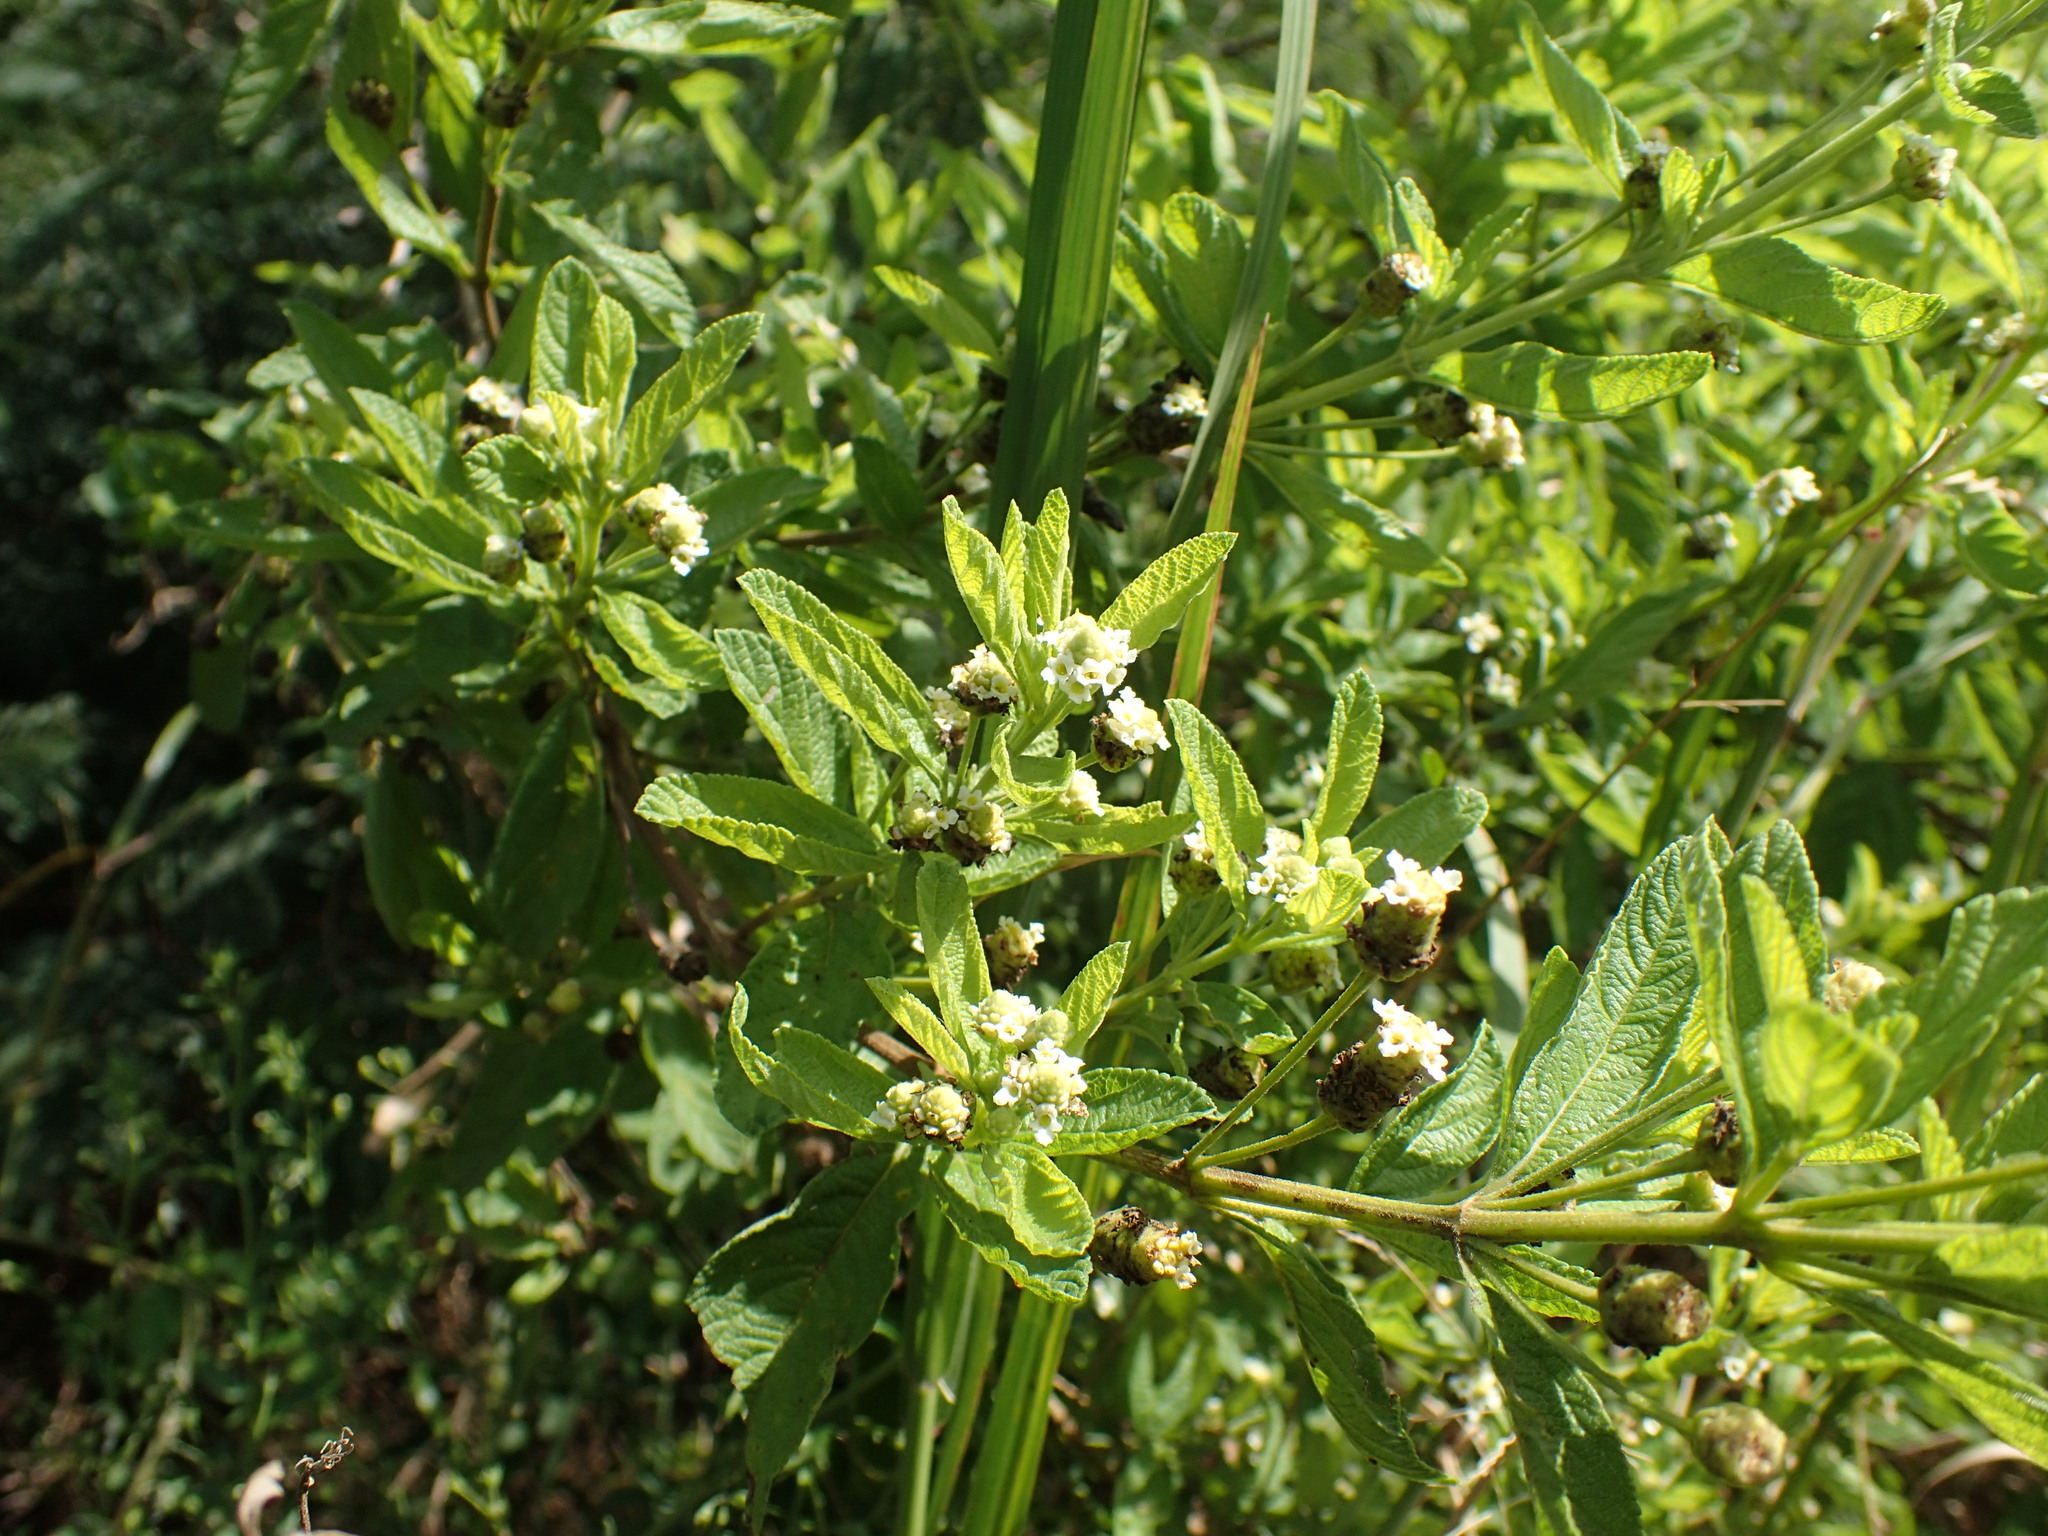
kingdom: Plantae
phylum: Tracheophyta
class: Magnoliopsida
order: Lamiales
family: Verbenaceae
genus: Lippia
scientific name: Lippia javanica
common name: Lemonbush
